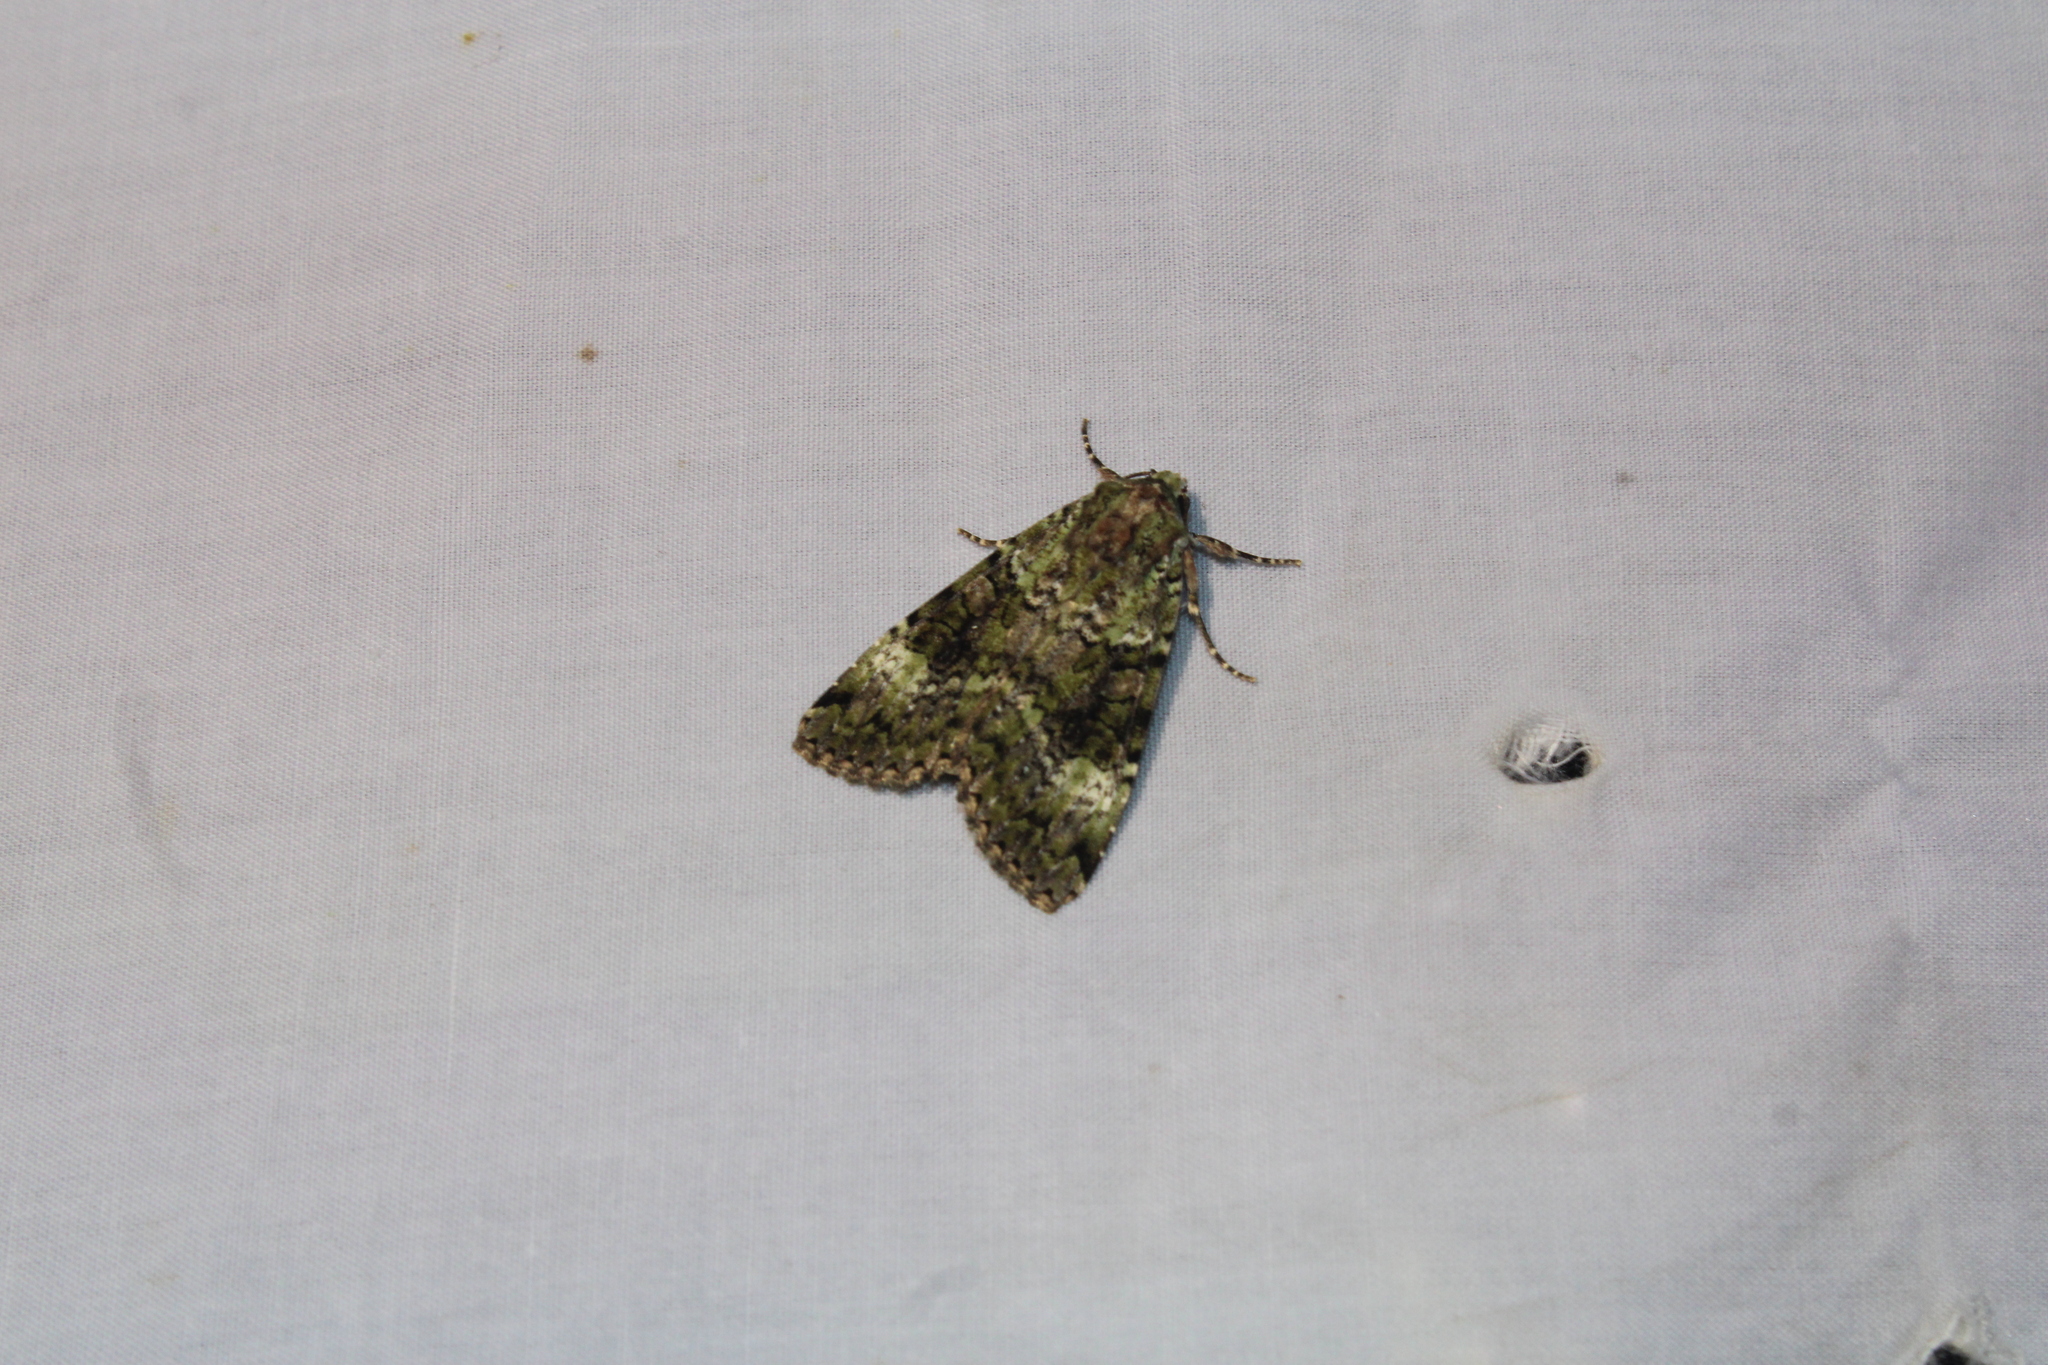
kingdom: Animalia
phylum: Arthropoda
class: Insecta
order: Lepidoptera
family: Noctuidae
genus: Anaplectoides
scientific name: Anaplectoides prasina
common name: Green arches
